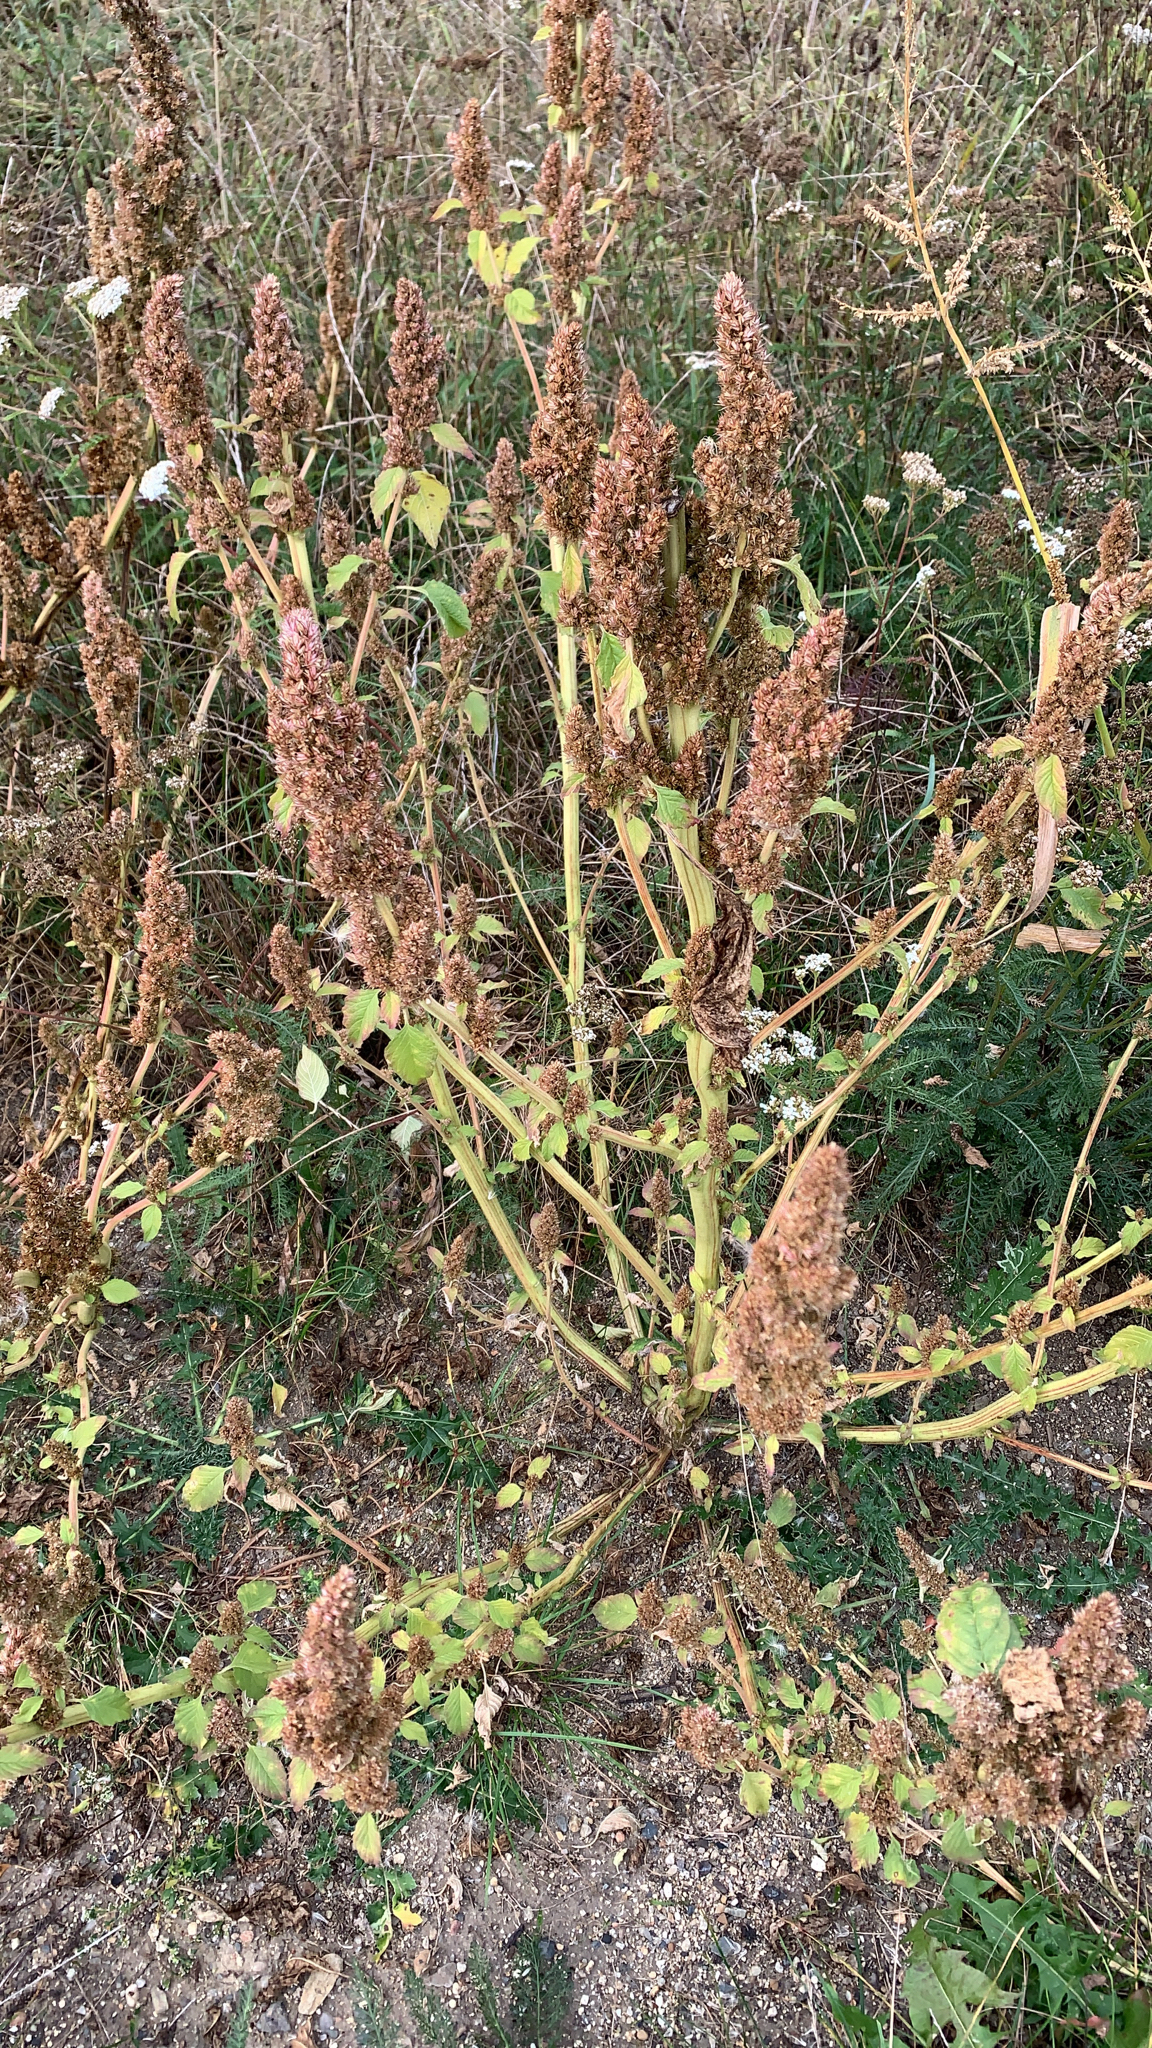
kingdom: Plantae
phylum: Tracheophyta
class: Magnoliopsida
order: Caryophyllales
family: Amaranthaceae
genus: Amaranthus
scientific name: Amaranthus retroflexus
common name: Redroot amaranth
